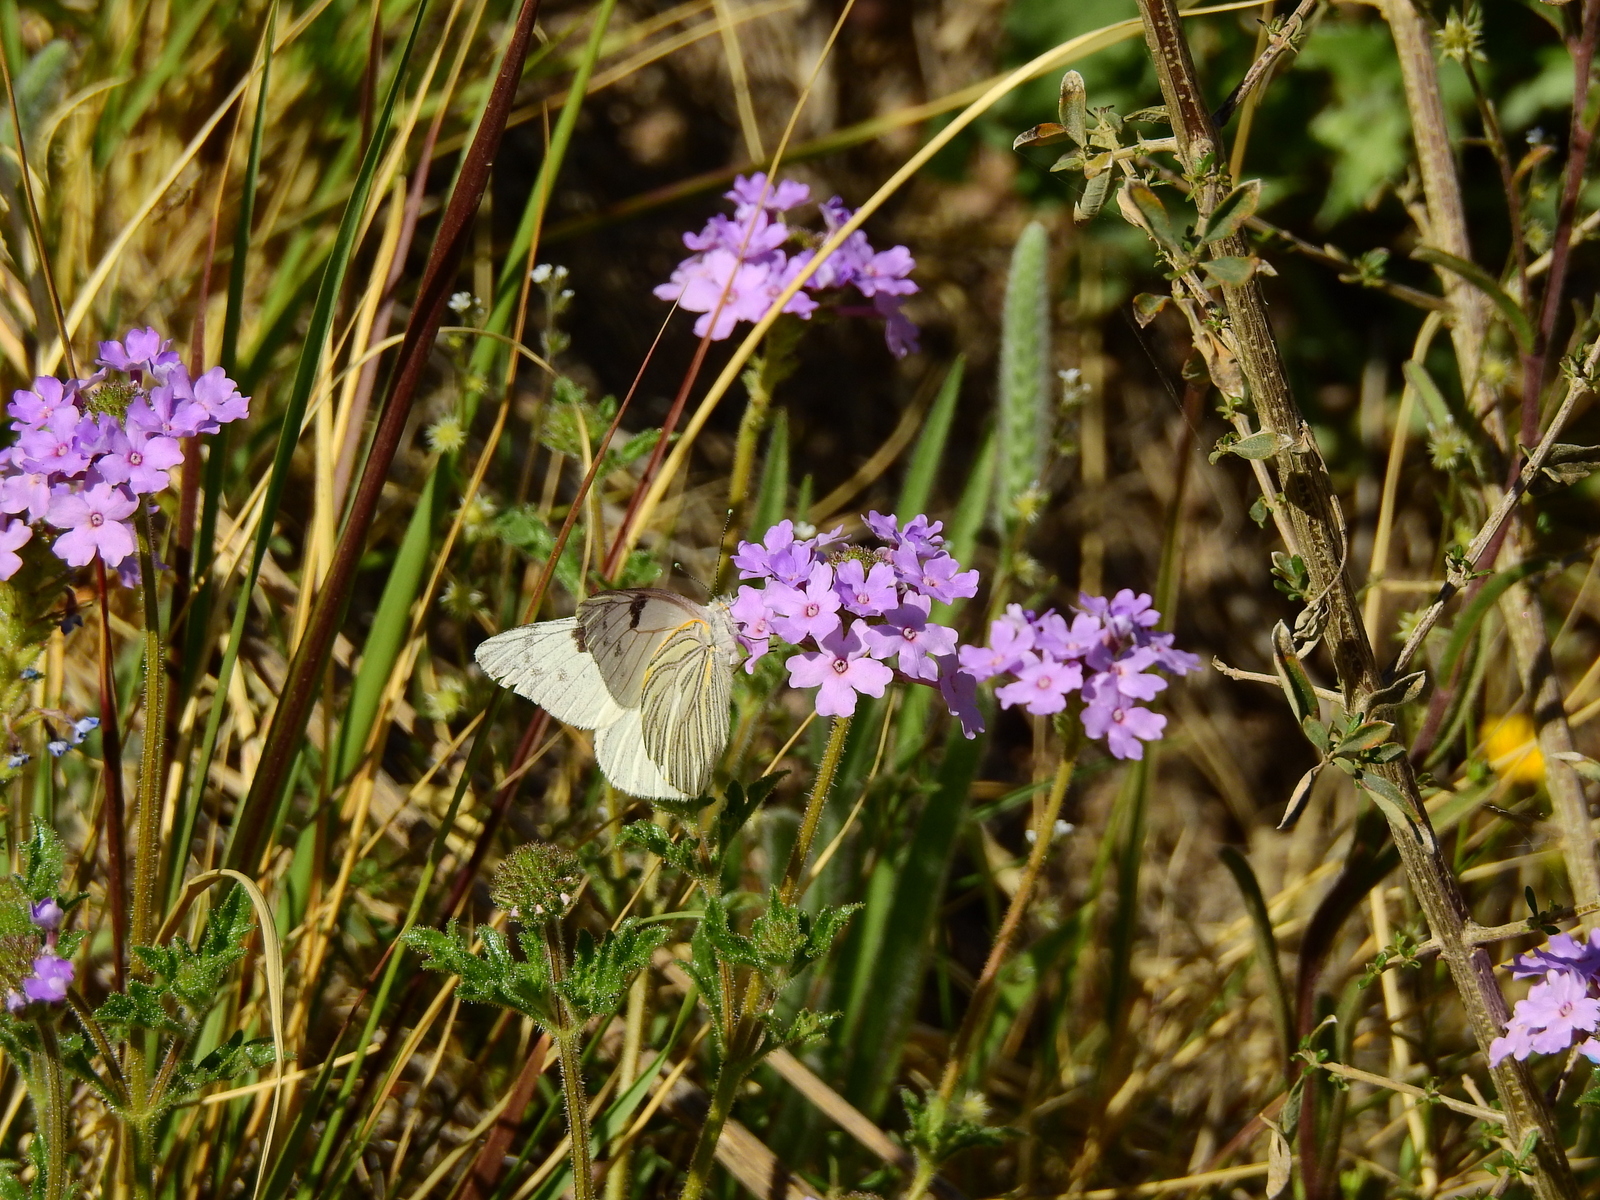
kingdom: Plantae
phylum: Tracheophyta
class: Magnoliopsida
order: Lamiales
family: Verbenaceae
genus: Verbena
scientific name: Verbena mendocina
